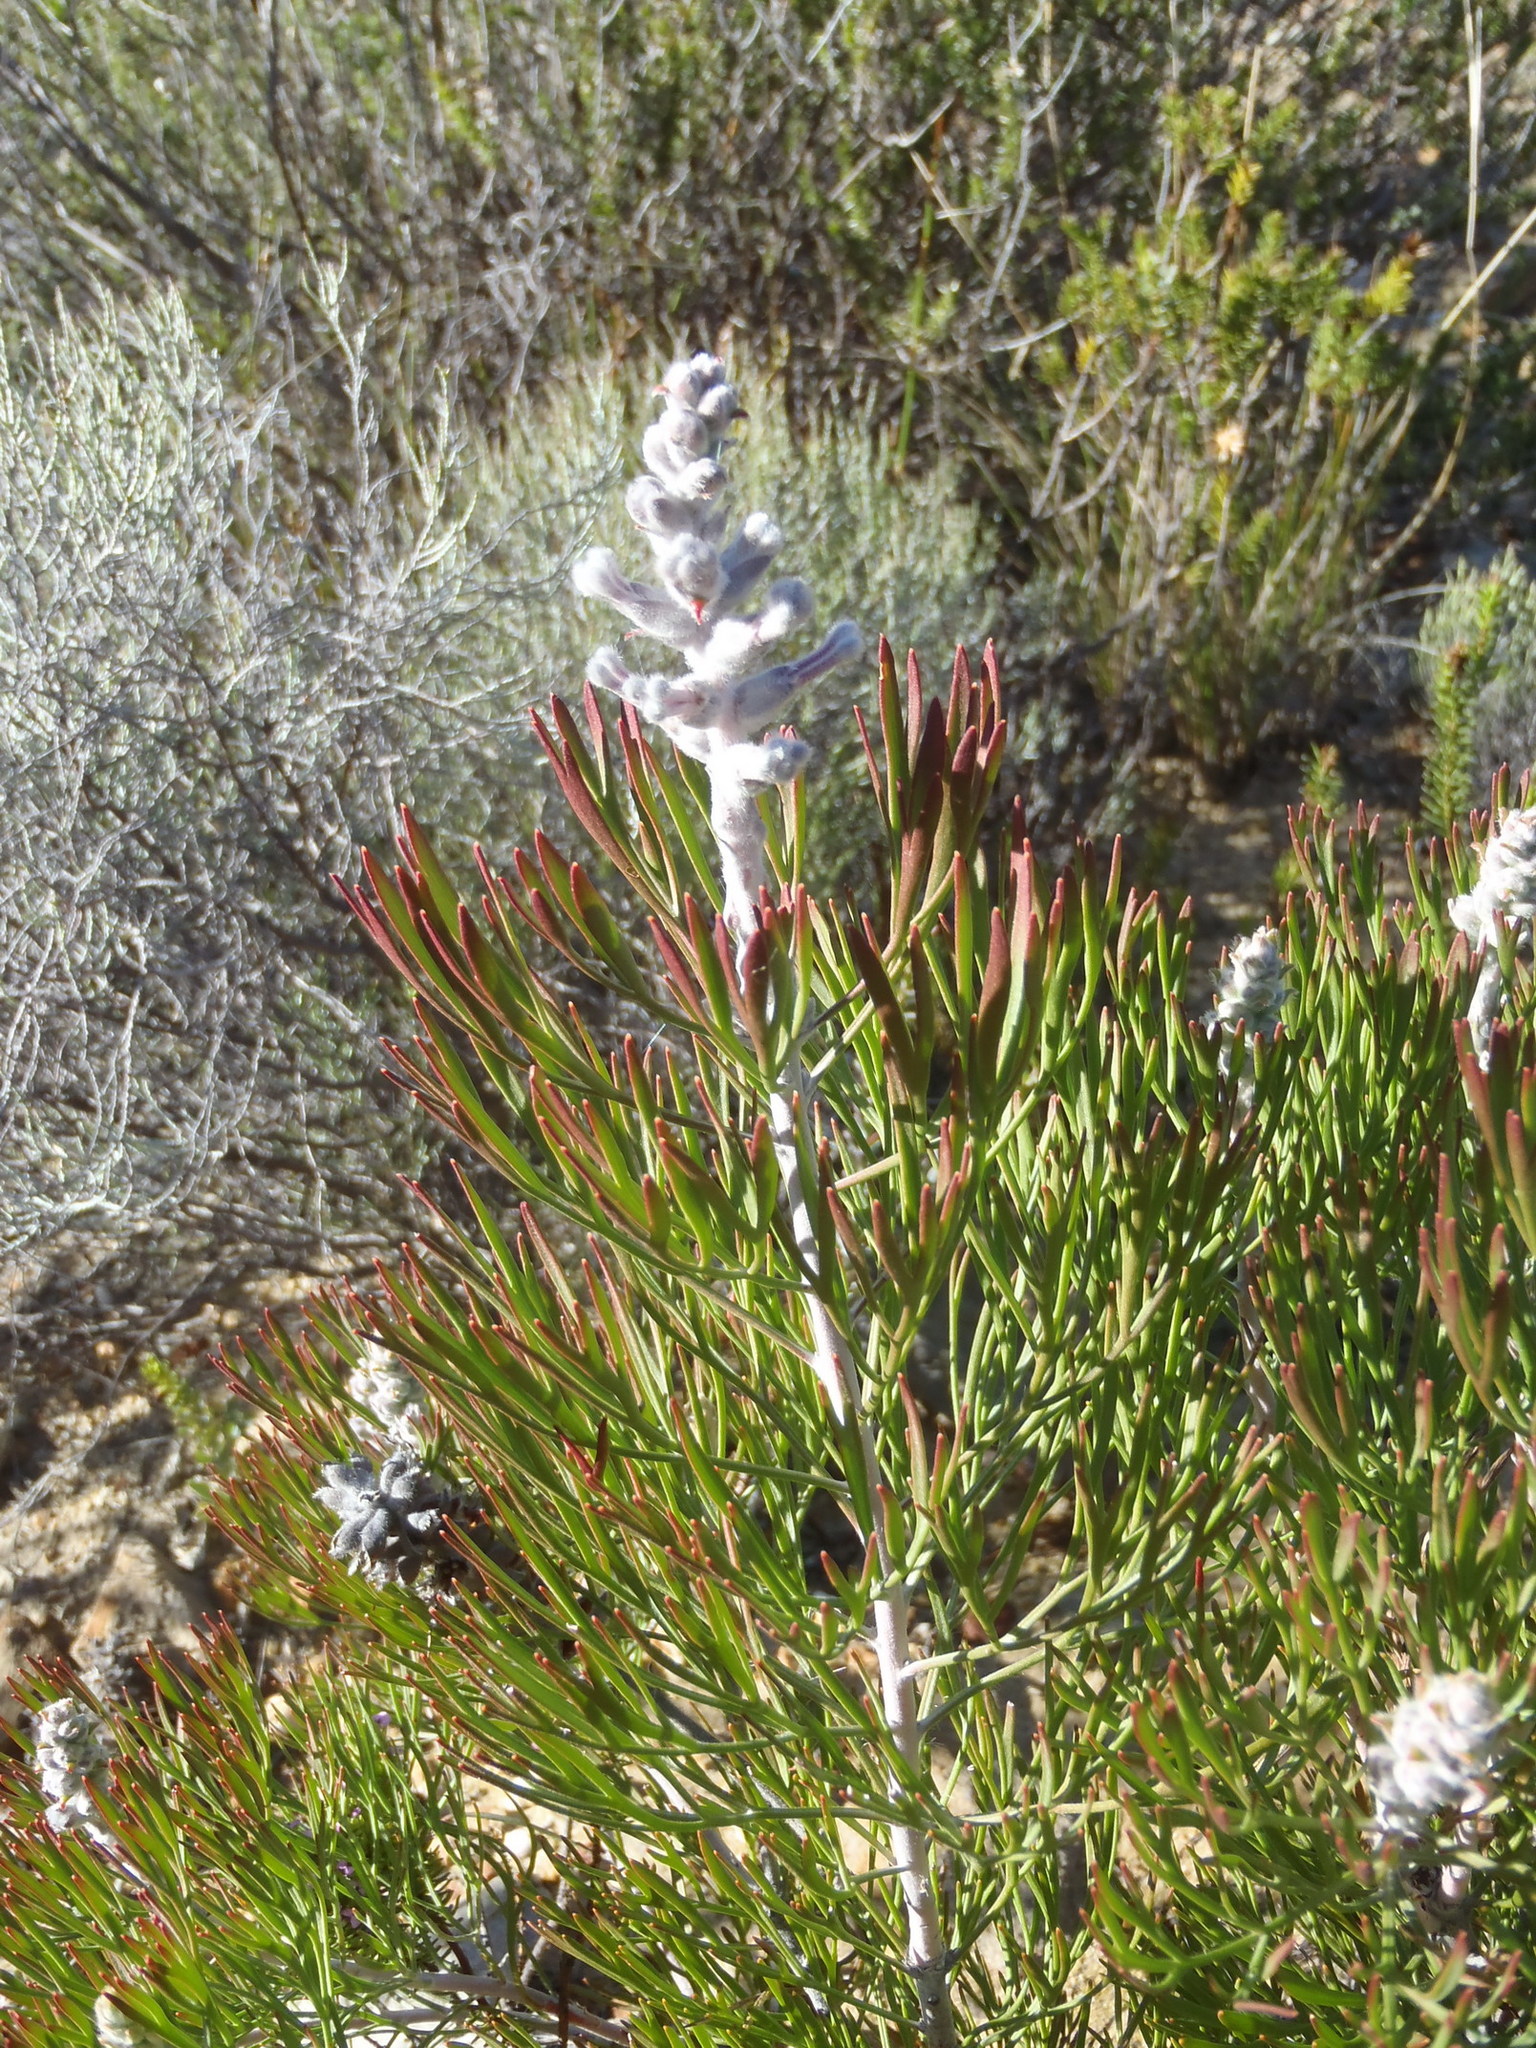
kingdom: Plantae
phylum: Tracheophyta
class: Magnoliopsida
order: Proteales
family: Proteaceae
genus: Paranomus
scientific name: Paranomus dispersus
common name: Long-head sceptre
